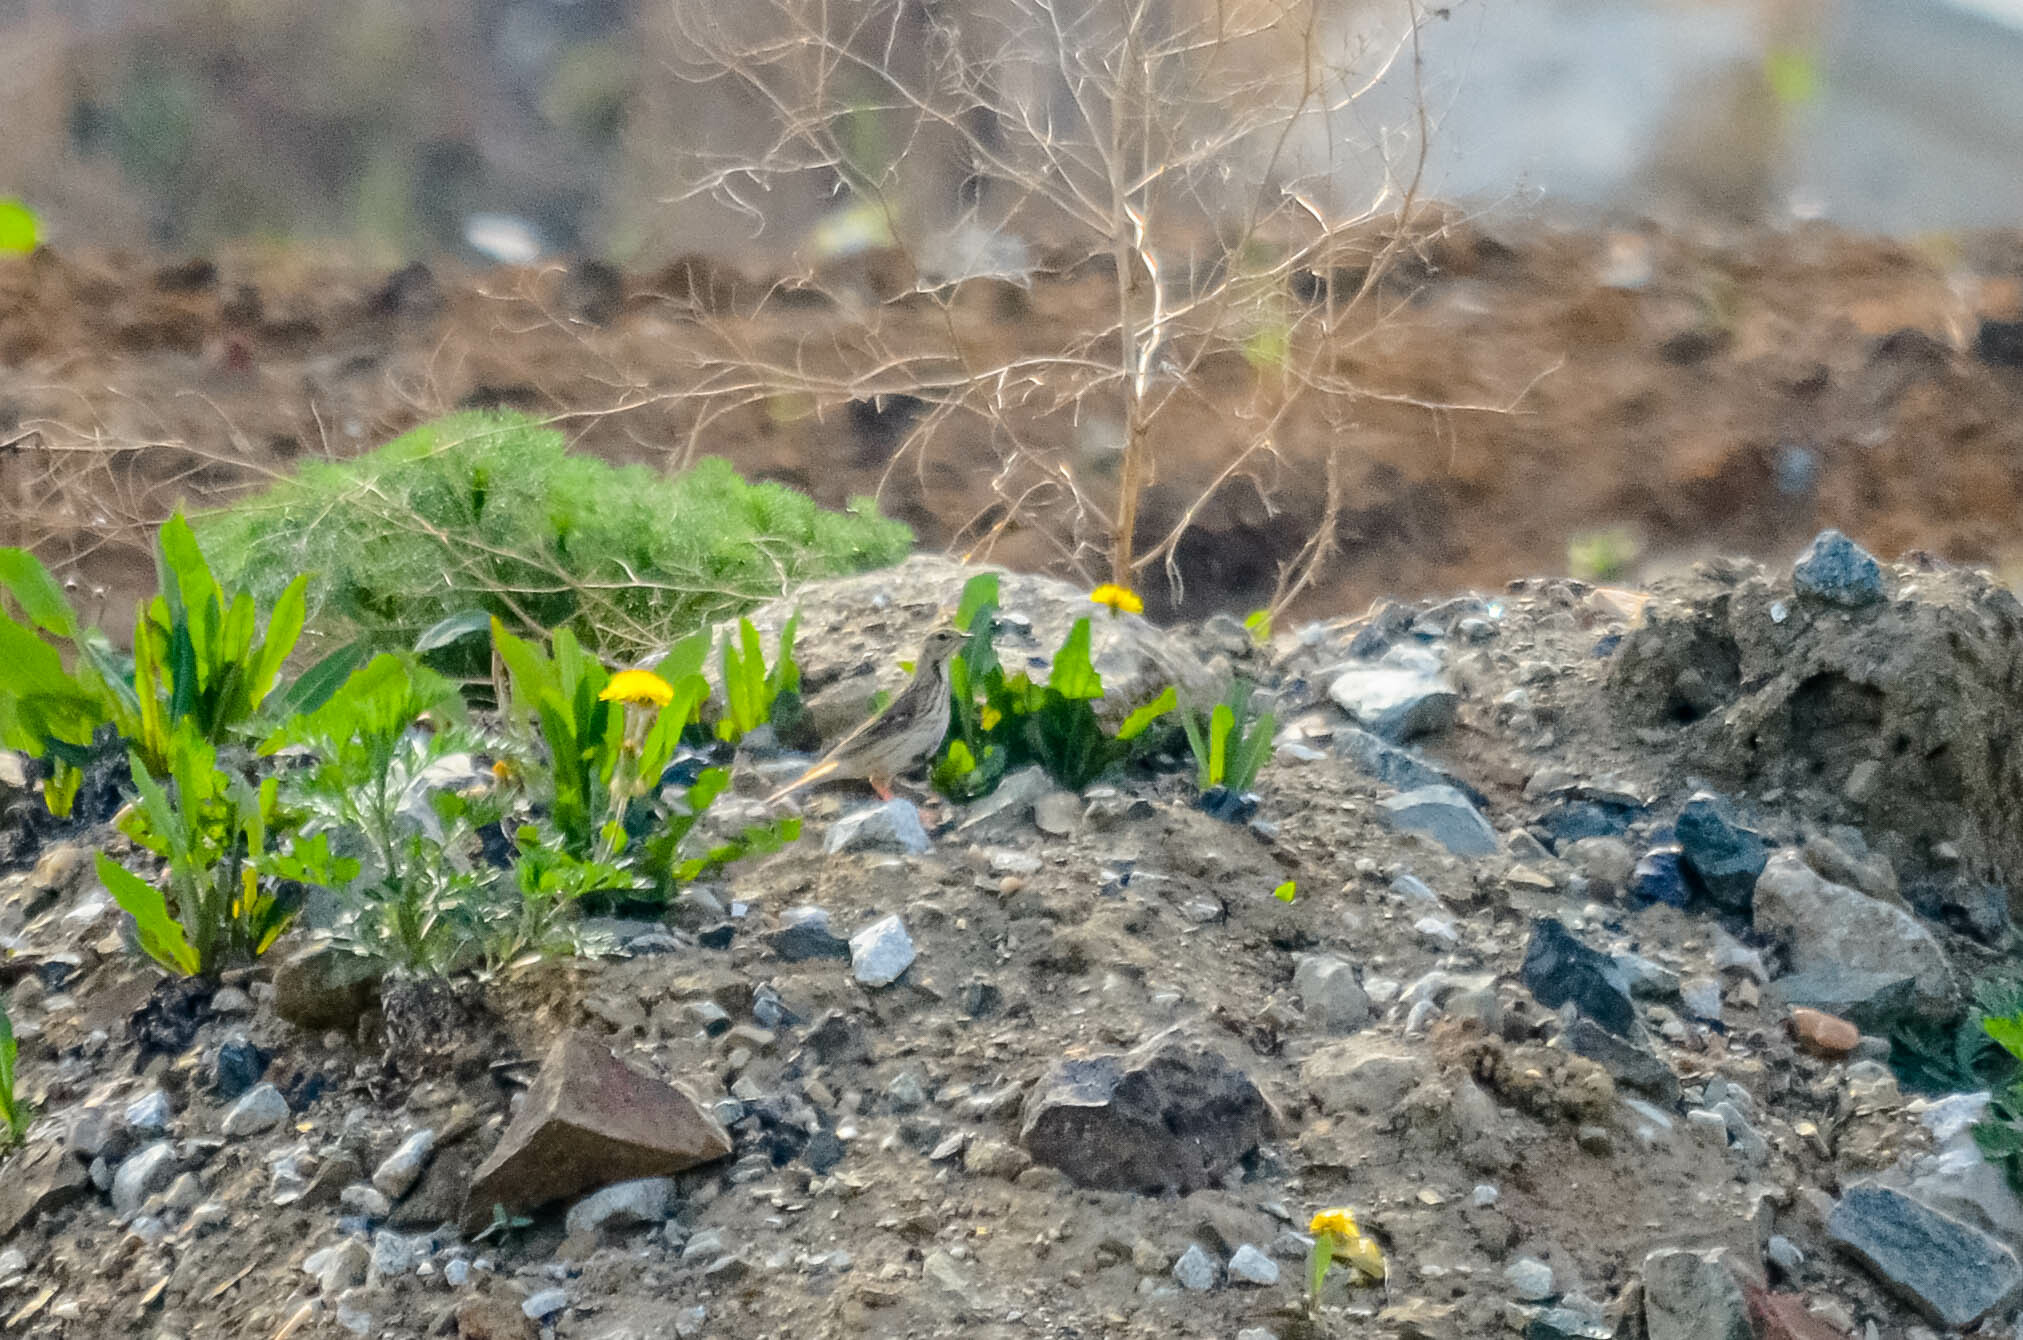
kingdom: Animalia
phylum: Chordata
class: Aves
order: Passeriformes
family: Motacillidae
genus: Anthus
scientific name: Anthus trivialis
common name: Tree pipit
